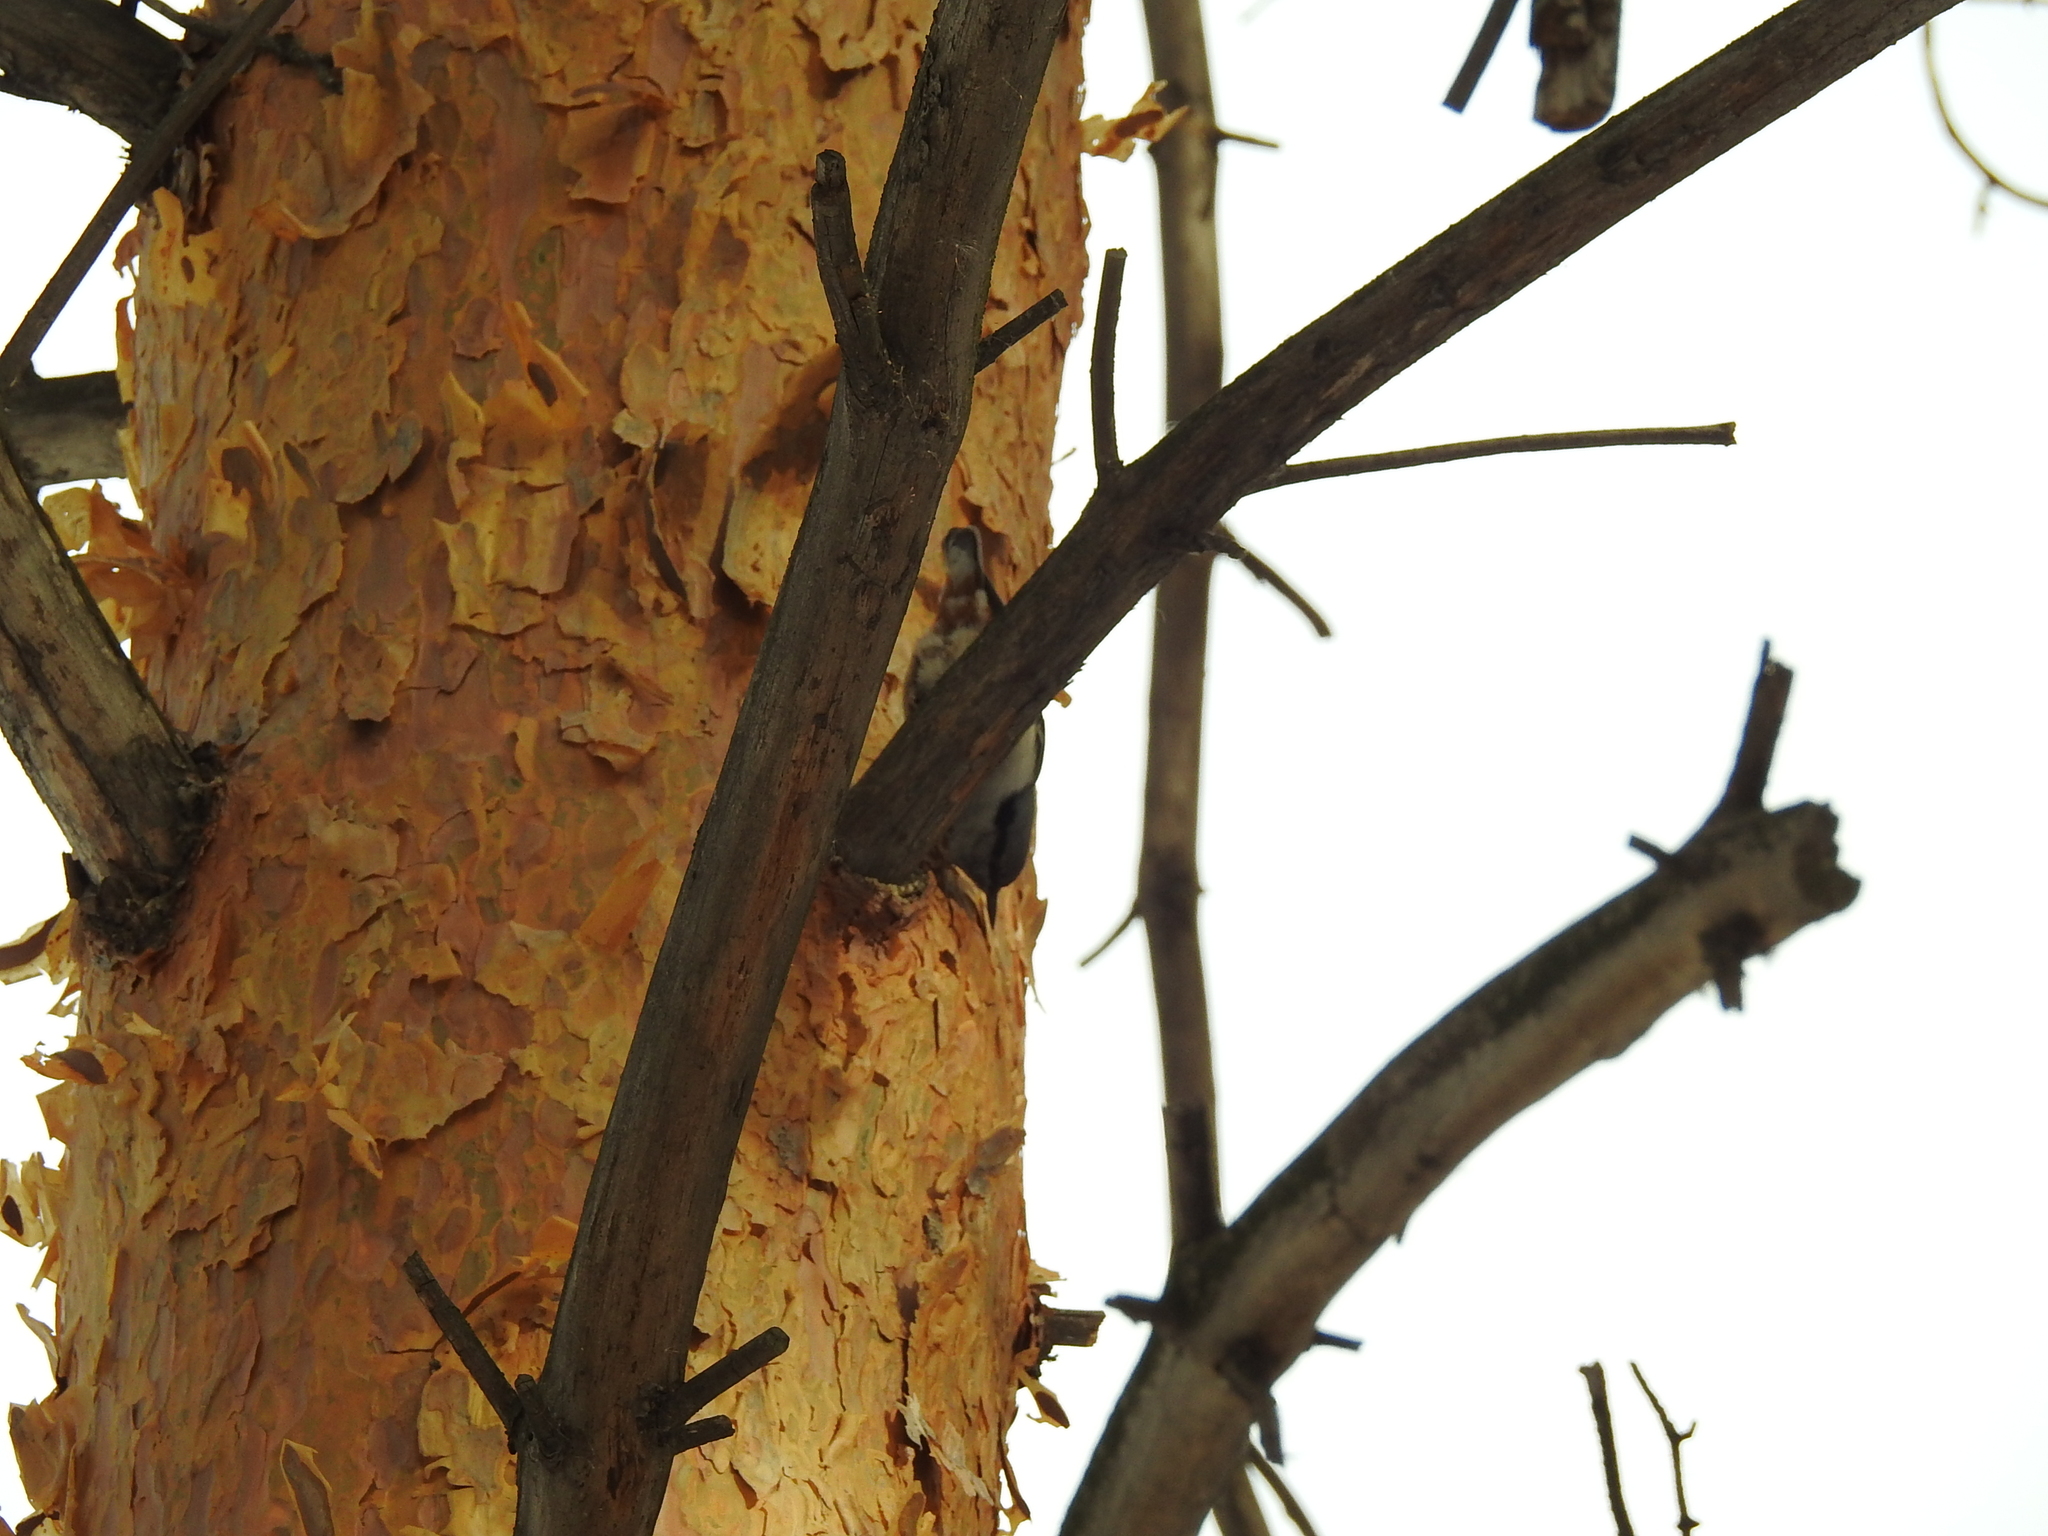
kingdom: Animalia
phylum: Chordata
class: Aves
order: Passeriformes
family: Sittidae
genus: Sitta
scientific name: Sitta europaea
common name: Eurasian nuthatch
